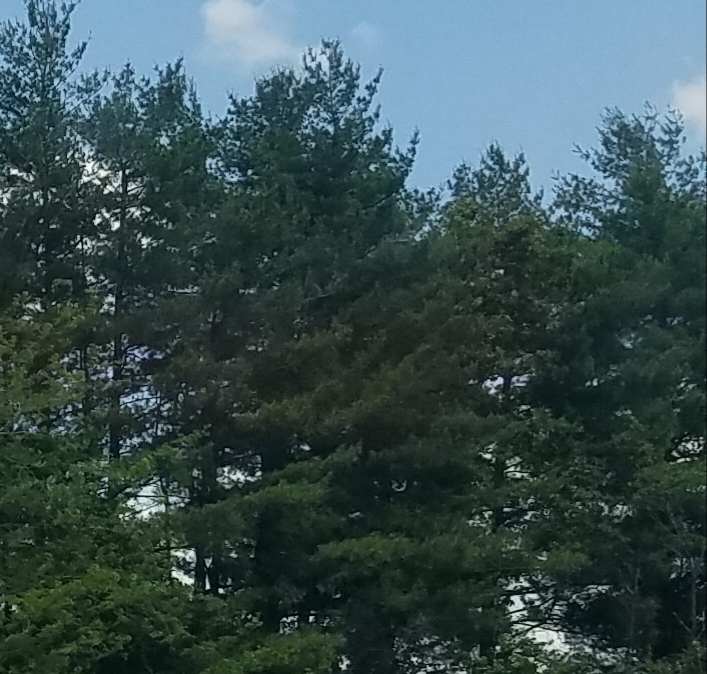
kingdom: Plantae
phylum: Tracheophyta
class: Pinopsida
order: Pinales
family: Pinaceae
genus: Pinus
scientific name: Pinus strobus
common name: Weymouth pine
